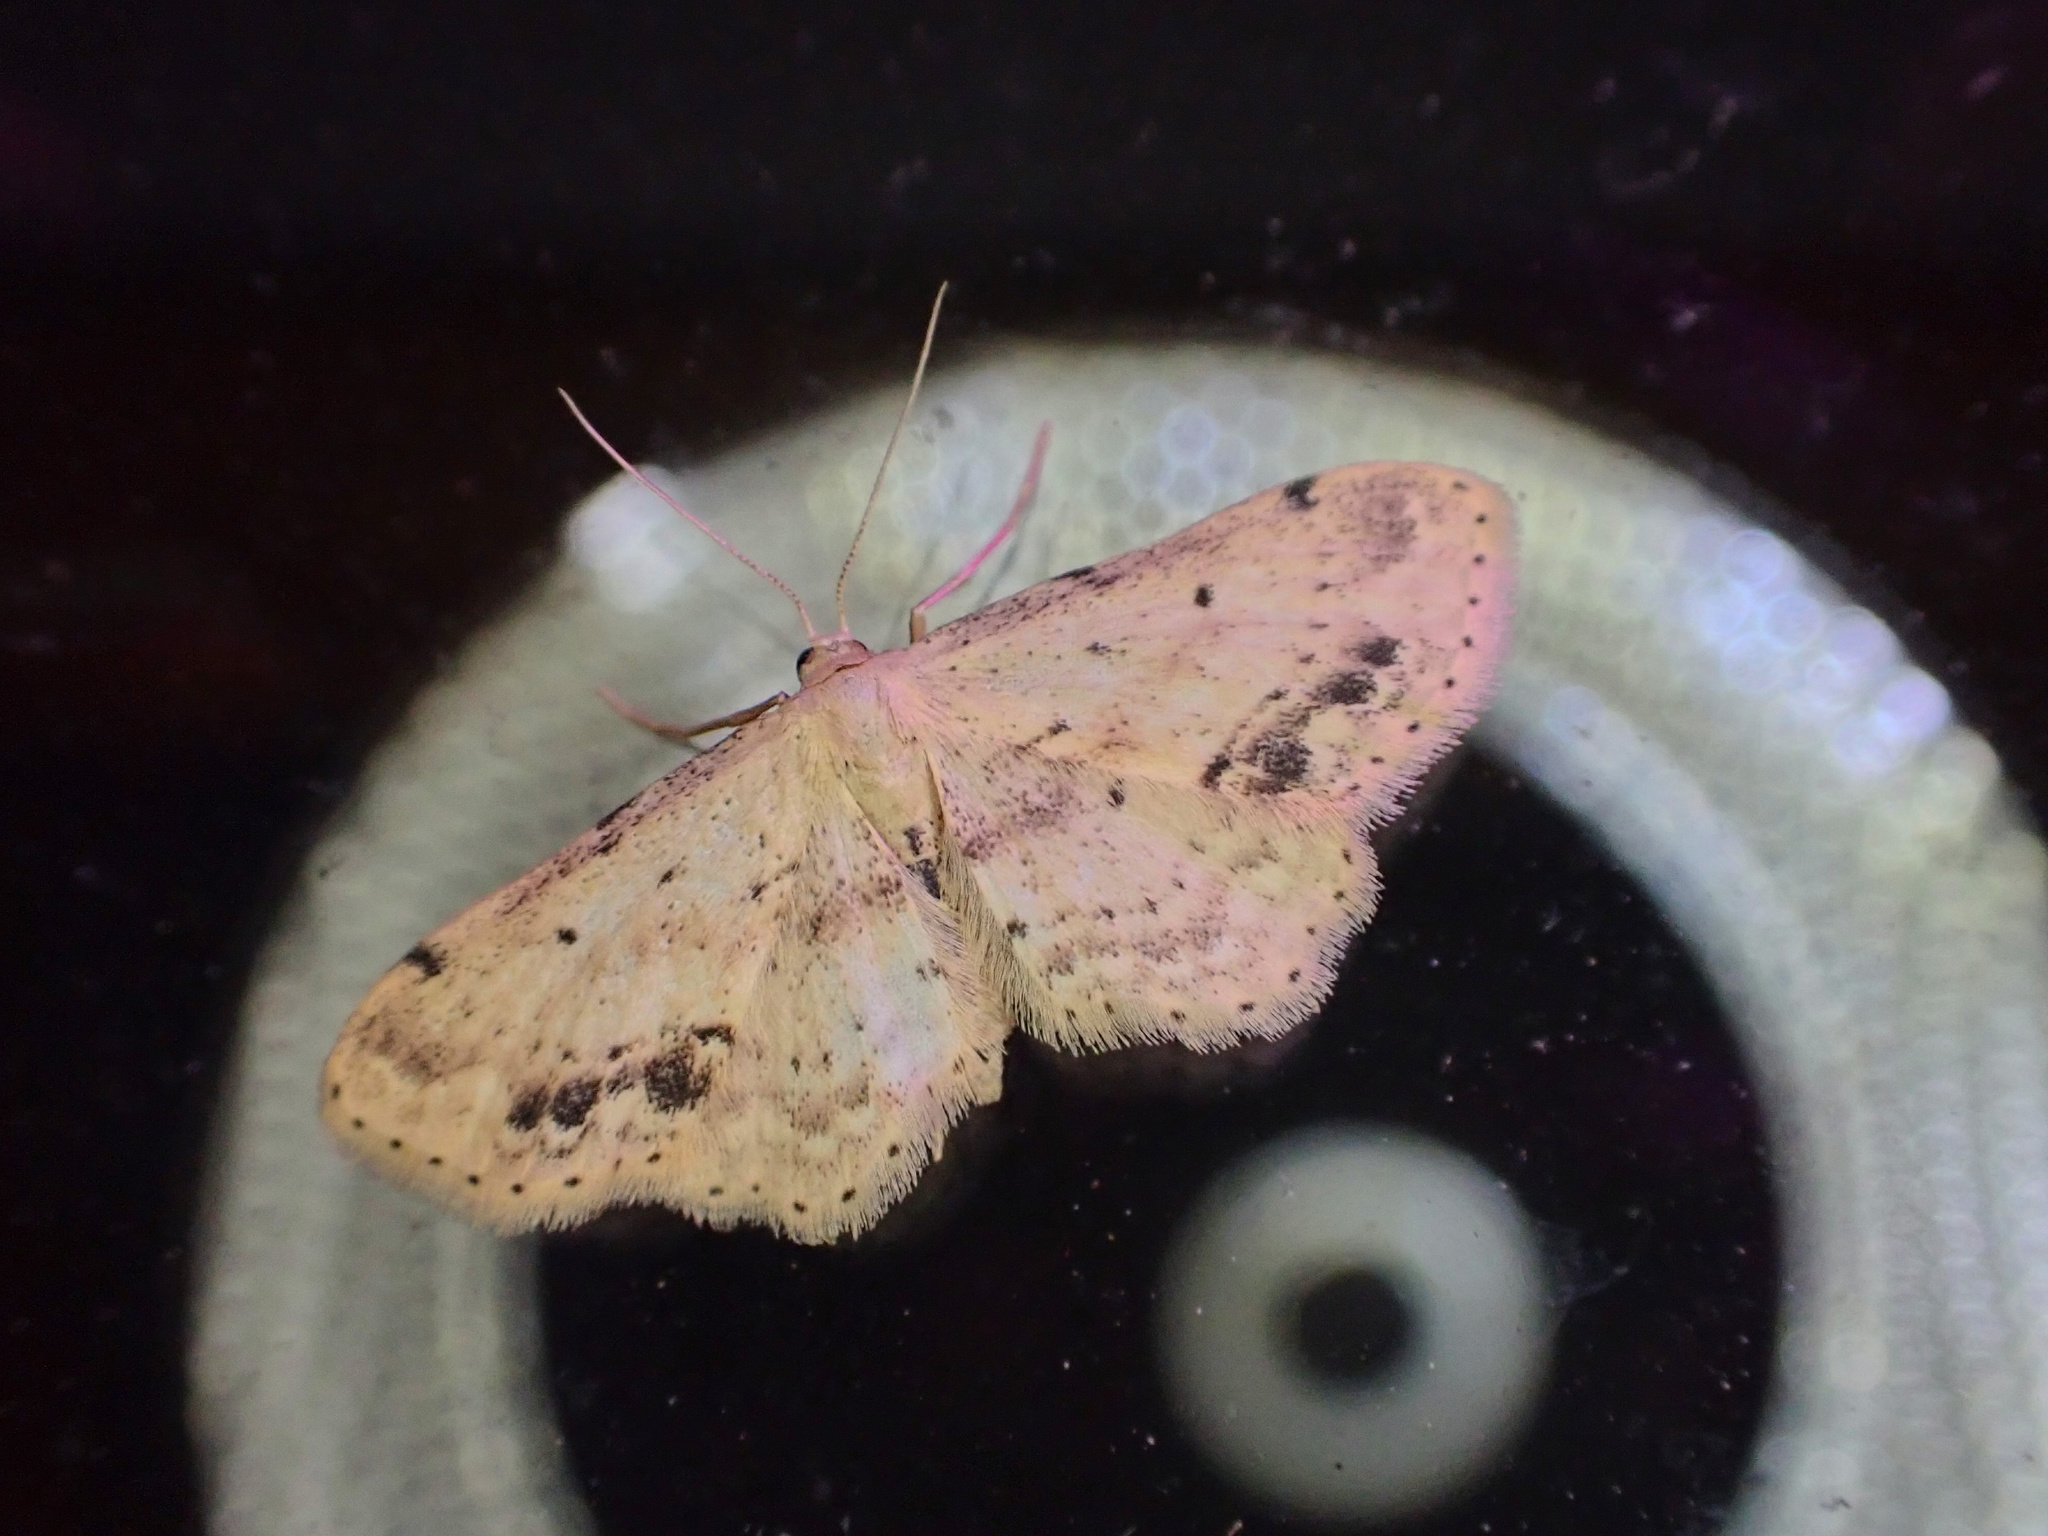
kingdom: Animalia
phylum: Arthropoda
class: Insecta
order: Lepidoptera
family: Geometridae
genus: Idaea
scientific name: Idaea dimidiata
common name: Single-dotted wave
